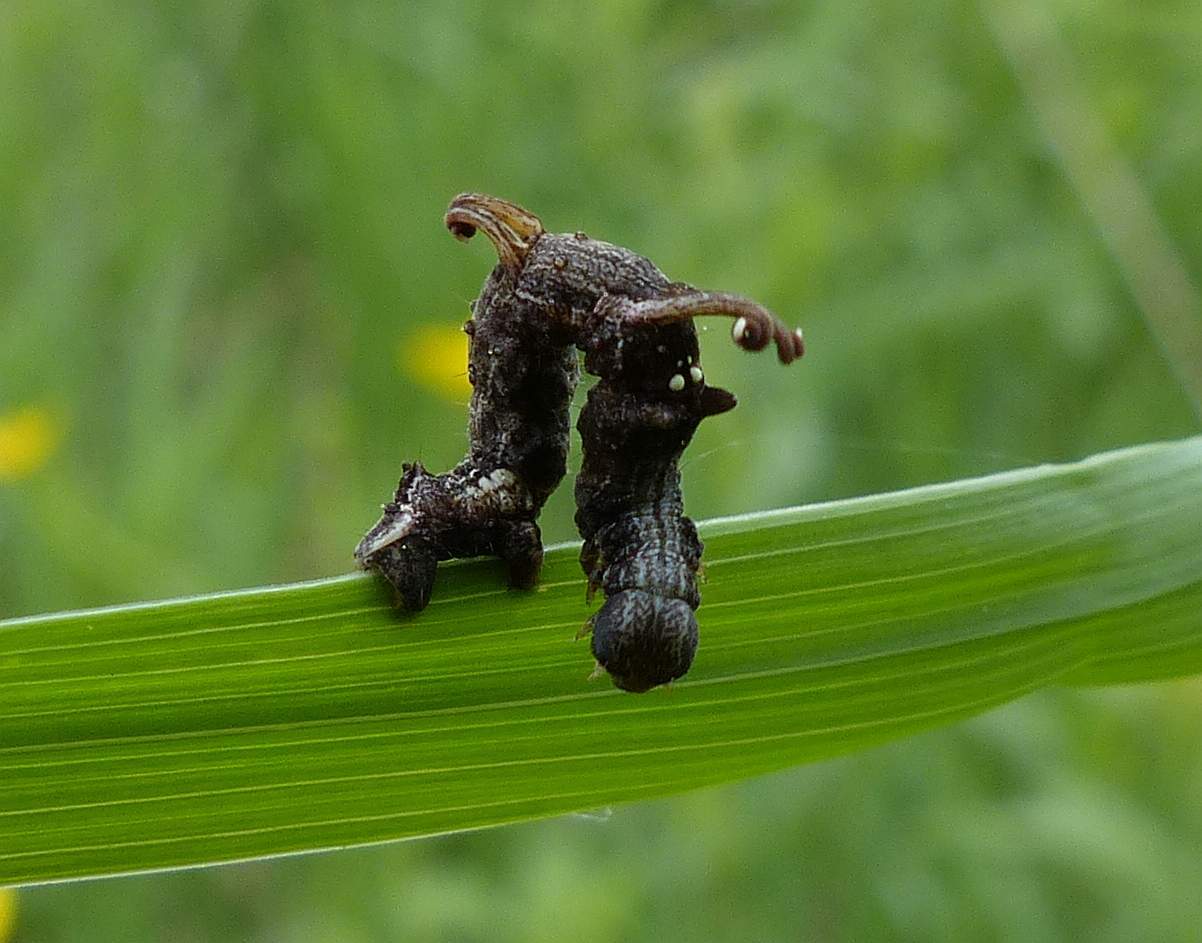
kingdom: Animalia
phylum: Arthropoda
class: Insecta
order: Lepidoptera
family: Geometridae
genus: Nematocampa
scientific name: Nematocampa resistaria
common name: Horned spanworm moth
